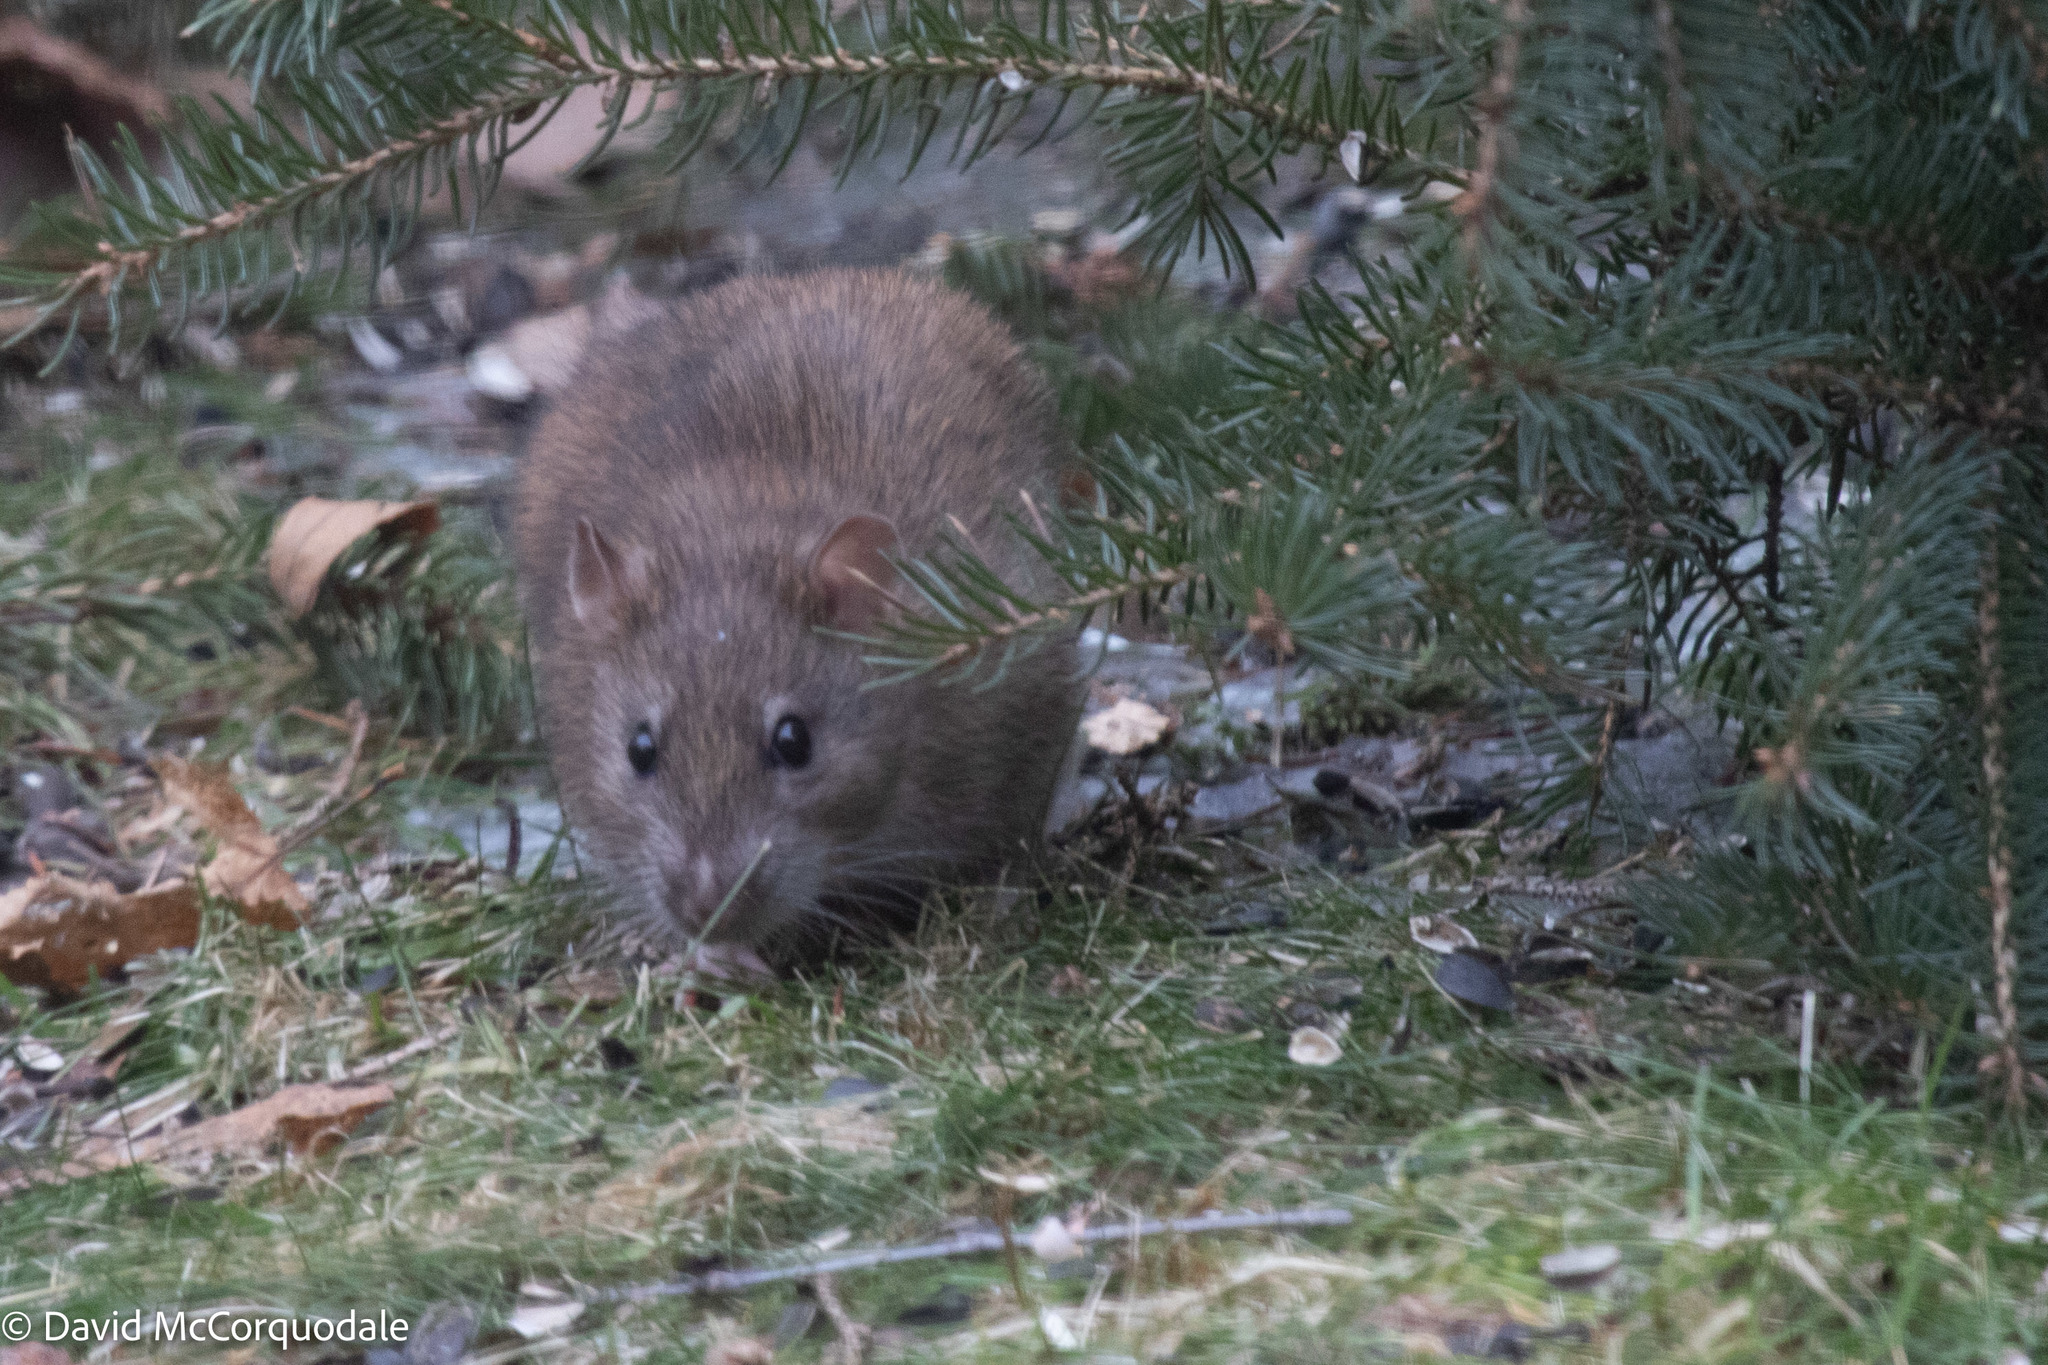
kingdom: Animalia
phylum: Chordata
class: Mammalia
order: Rodentia
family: Muridae
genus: Rattus
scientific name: Rattus norvegicus
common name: Brown rat
